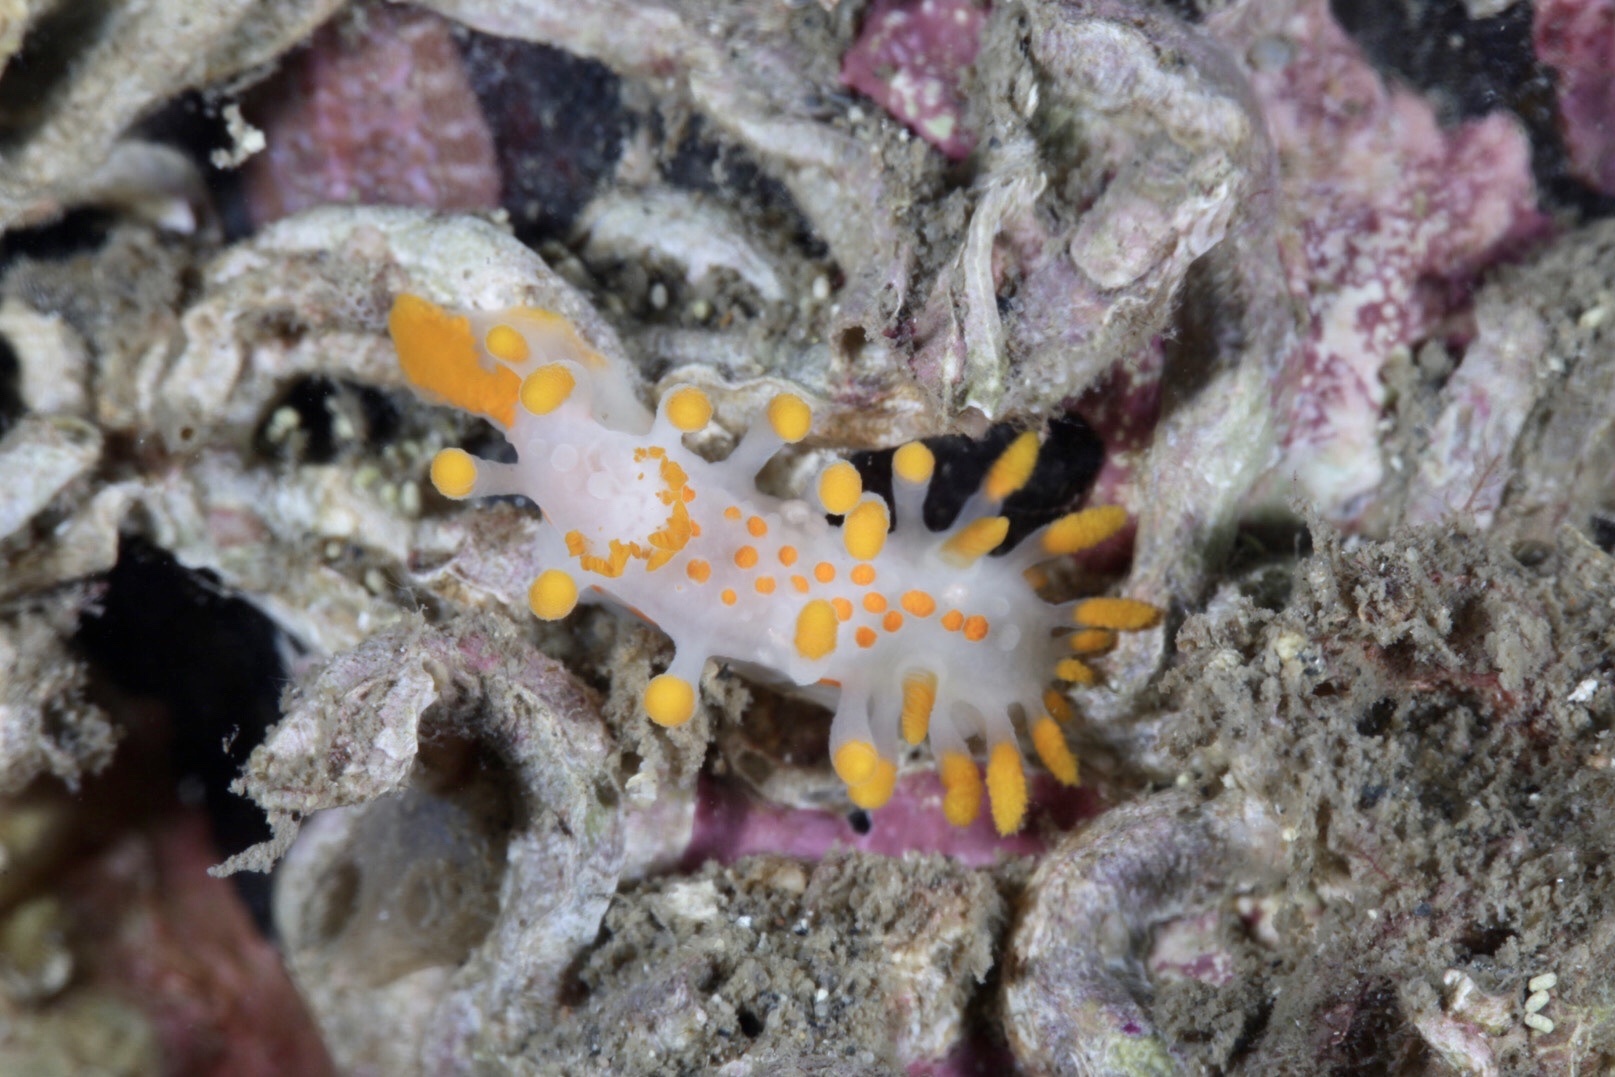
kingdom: Animalia
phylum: Mollusca
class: Gastropoda
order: Nudibranchia
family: Polyceridae
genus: Limacia
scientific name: Limacia clavigera
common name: Orange-clubbed sea slug
